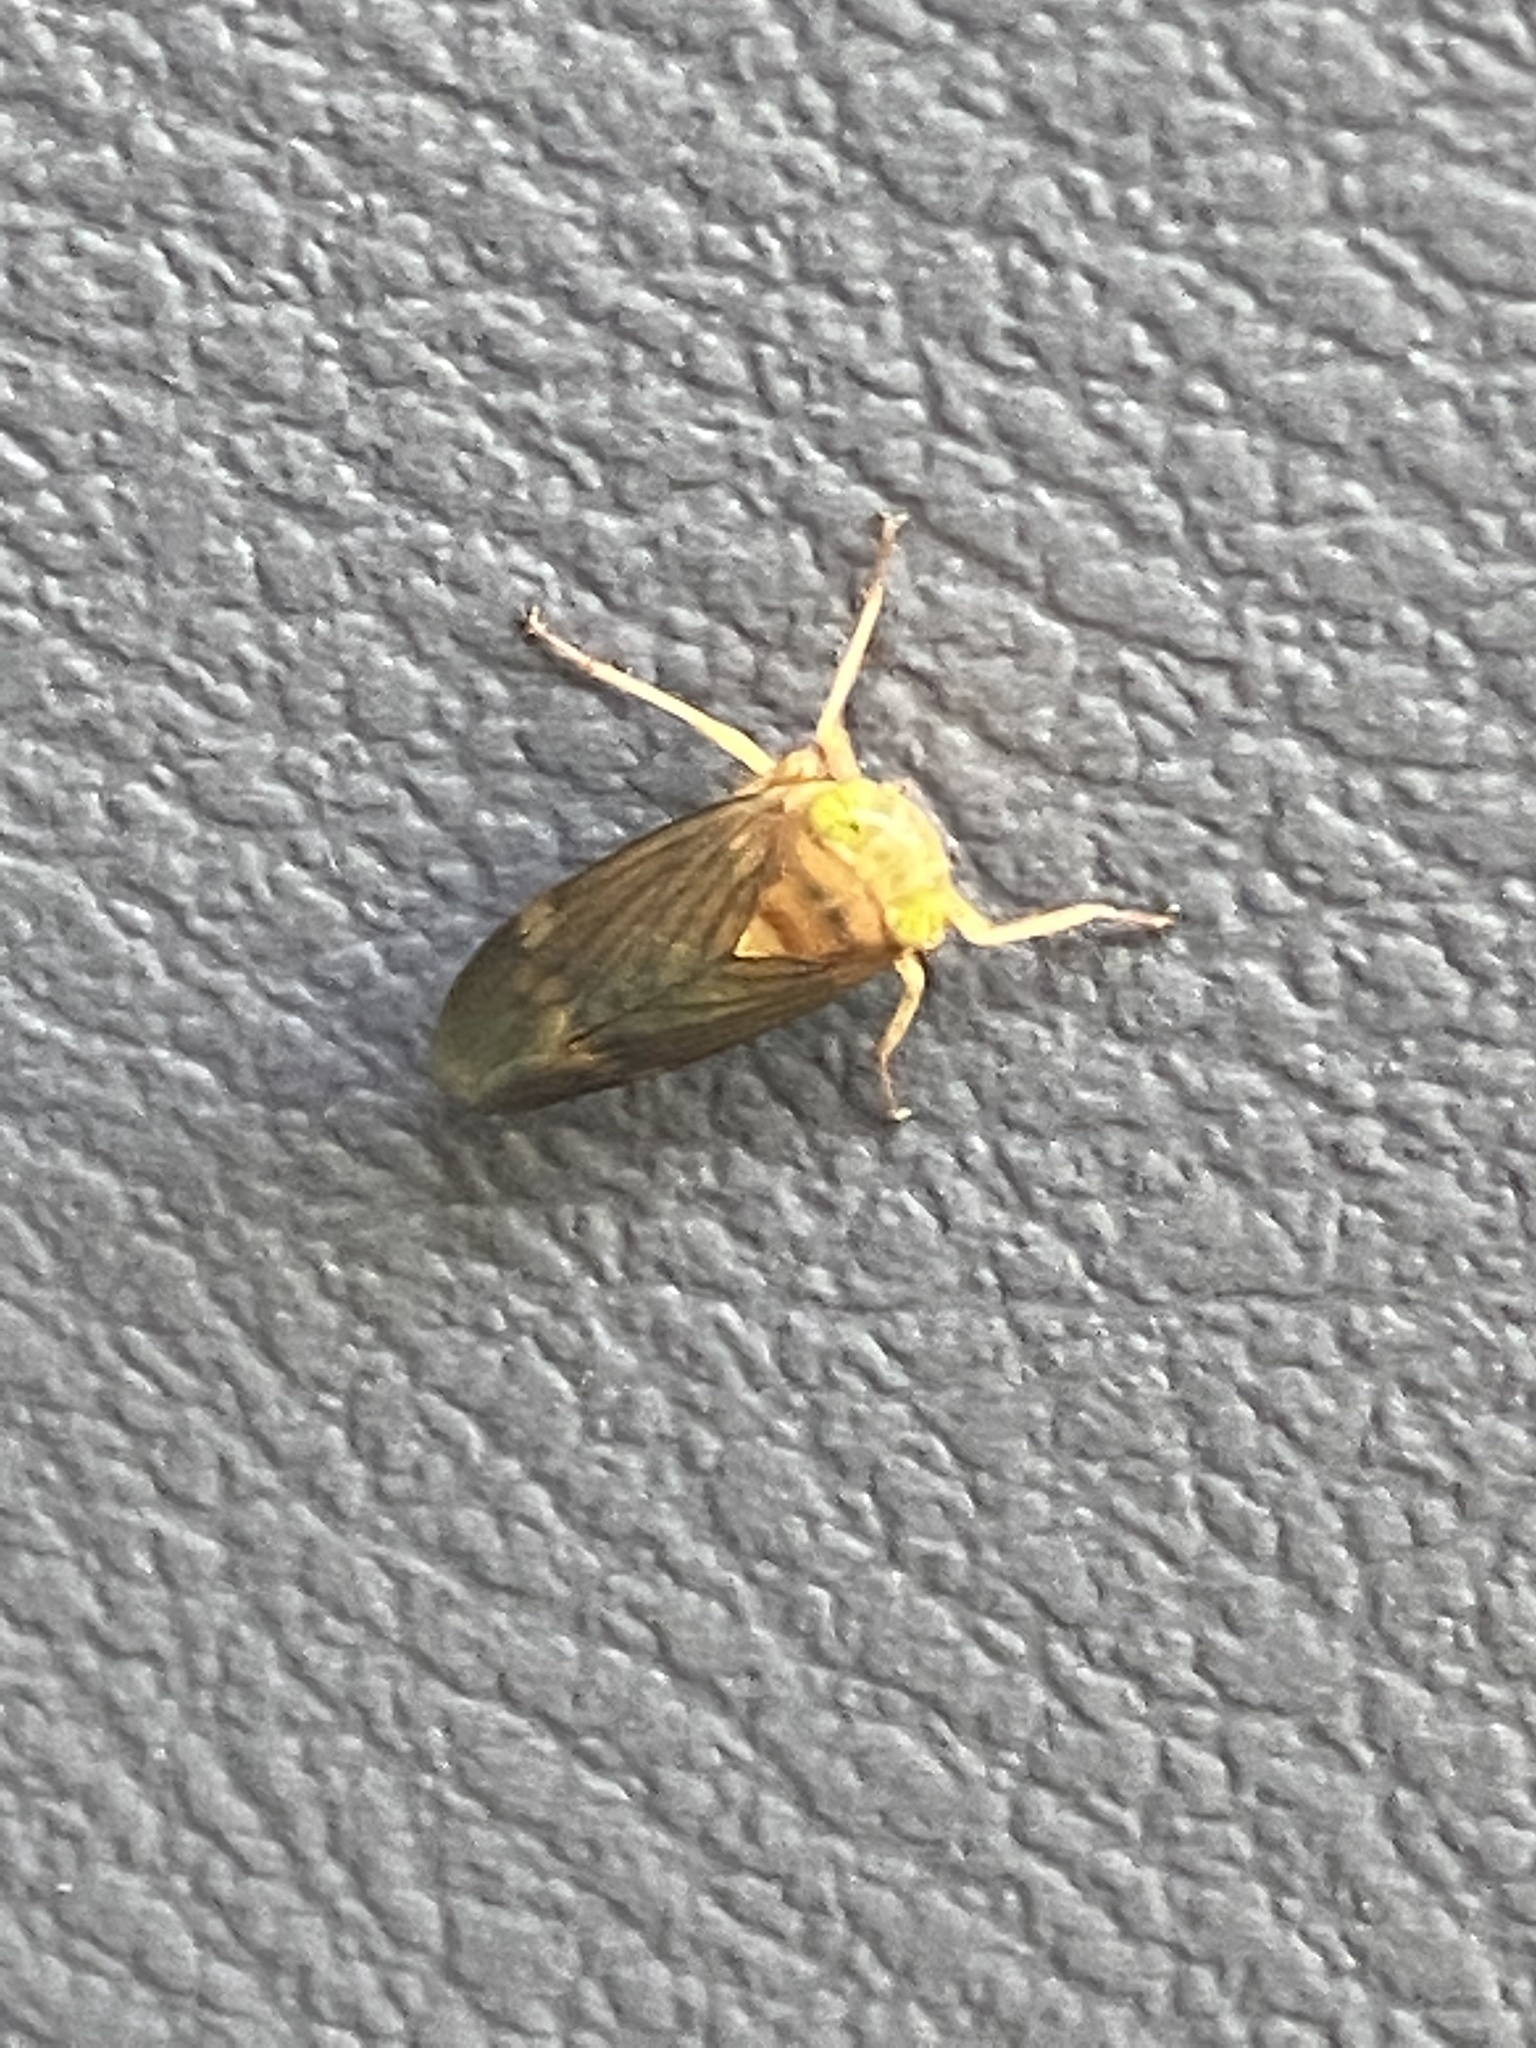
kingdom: Animalia
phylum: Arthropoda
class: Insecta
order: Hemiptera
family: Cicadellidae
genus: Jikradia
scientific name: Jikradia olitoria
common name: Coppery leafhopper
